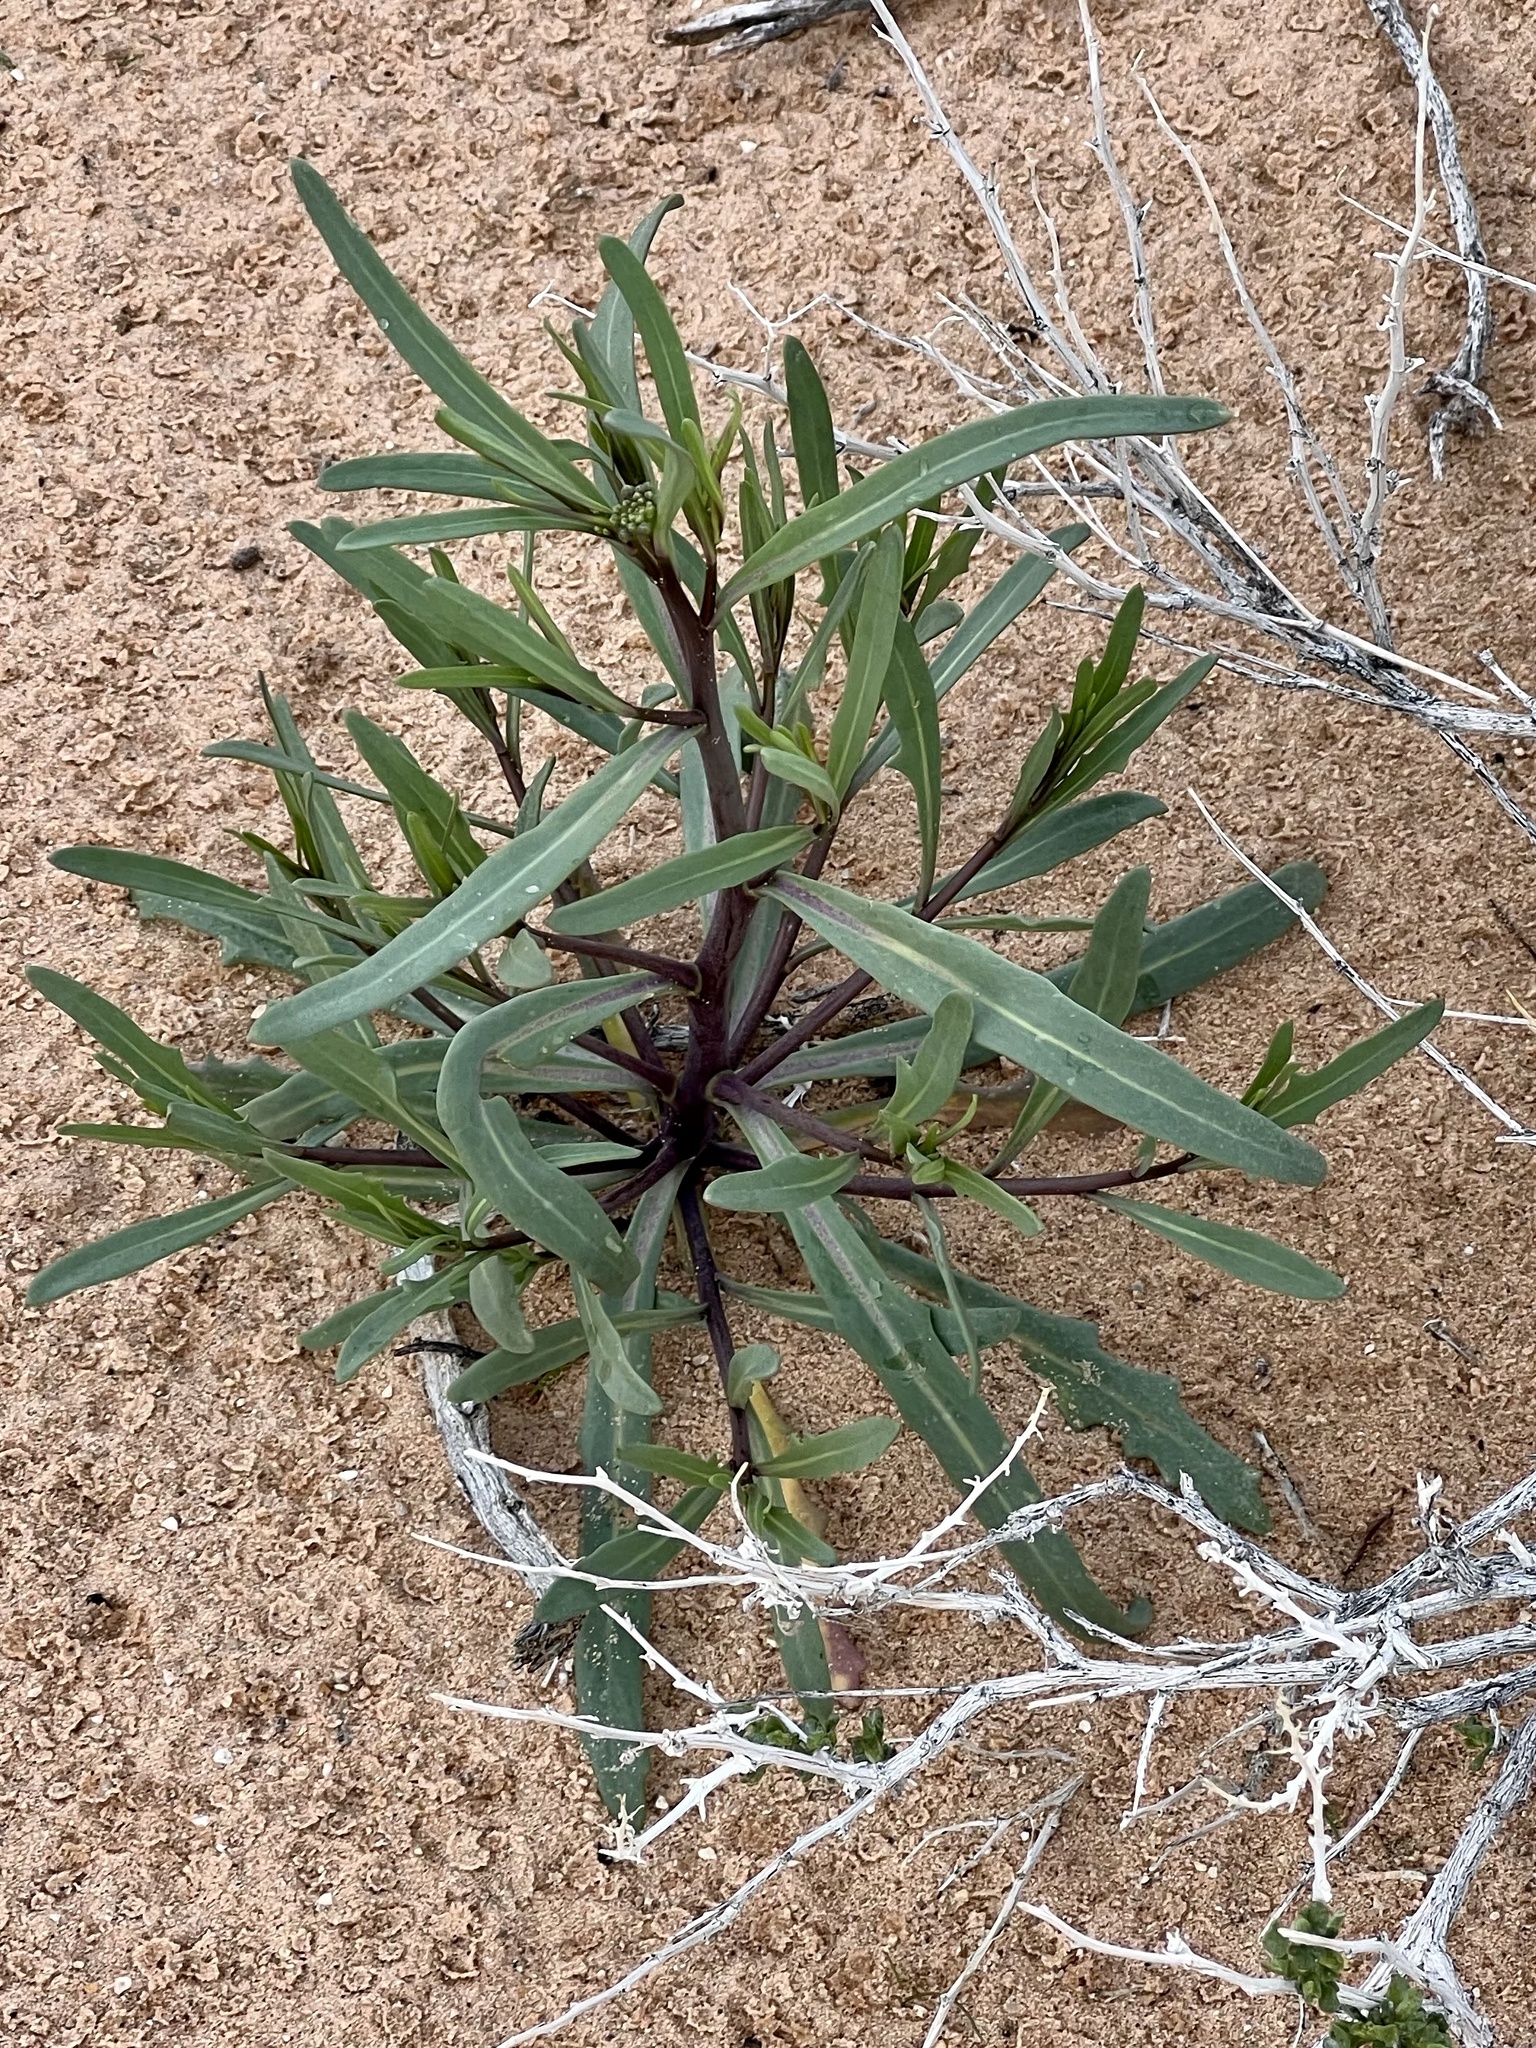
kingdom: Plantae
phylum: Tracheophyta
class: Magnoliopsida
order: Brassicales
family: Brassicaceae
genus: Streptanthus
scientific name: Streptanthus longirostris
